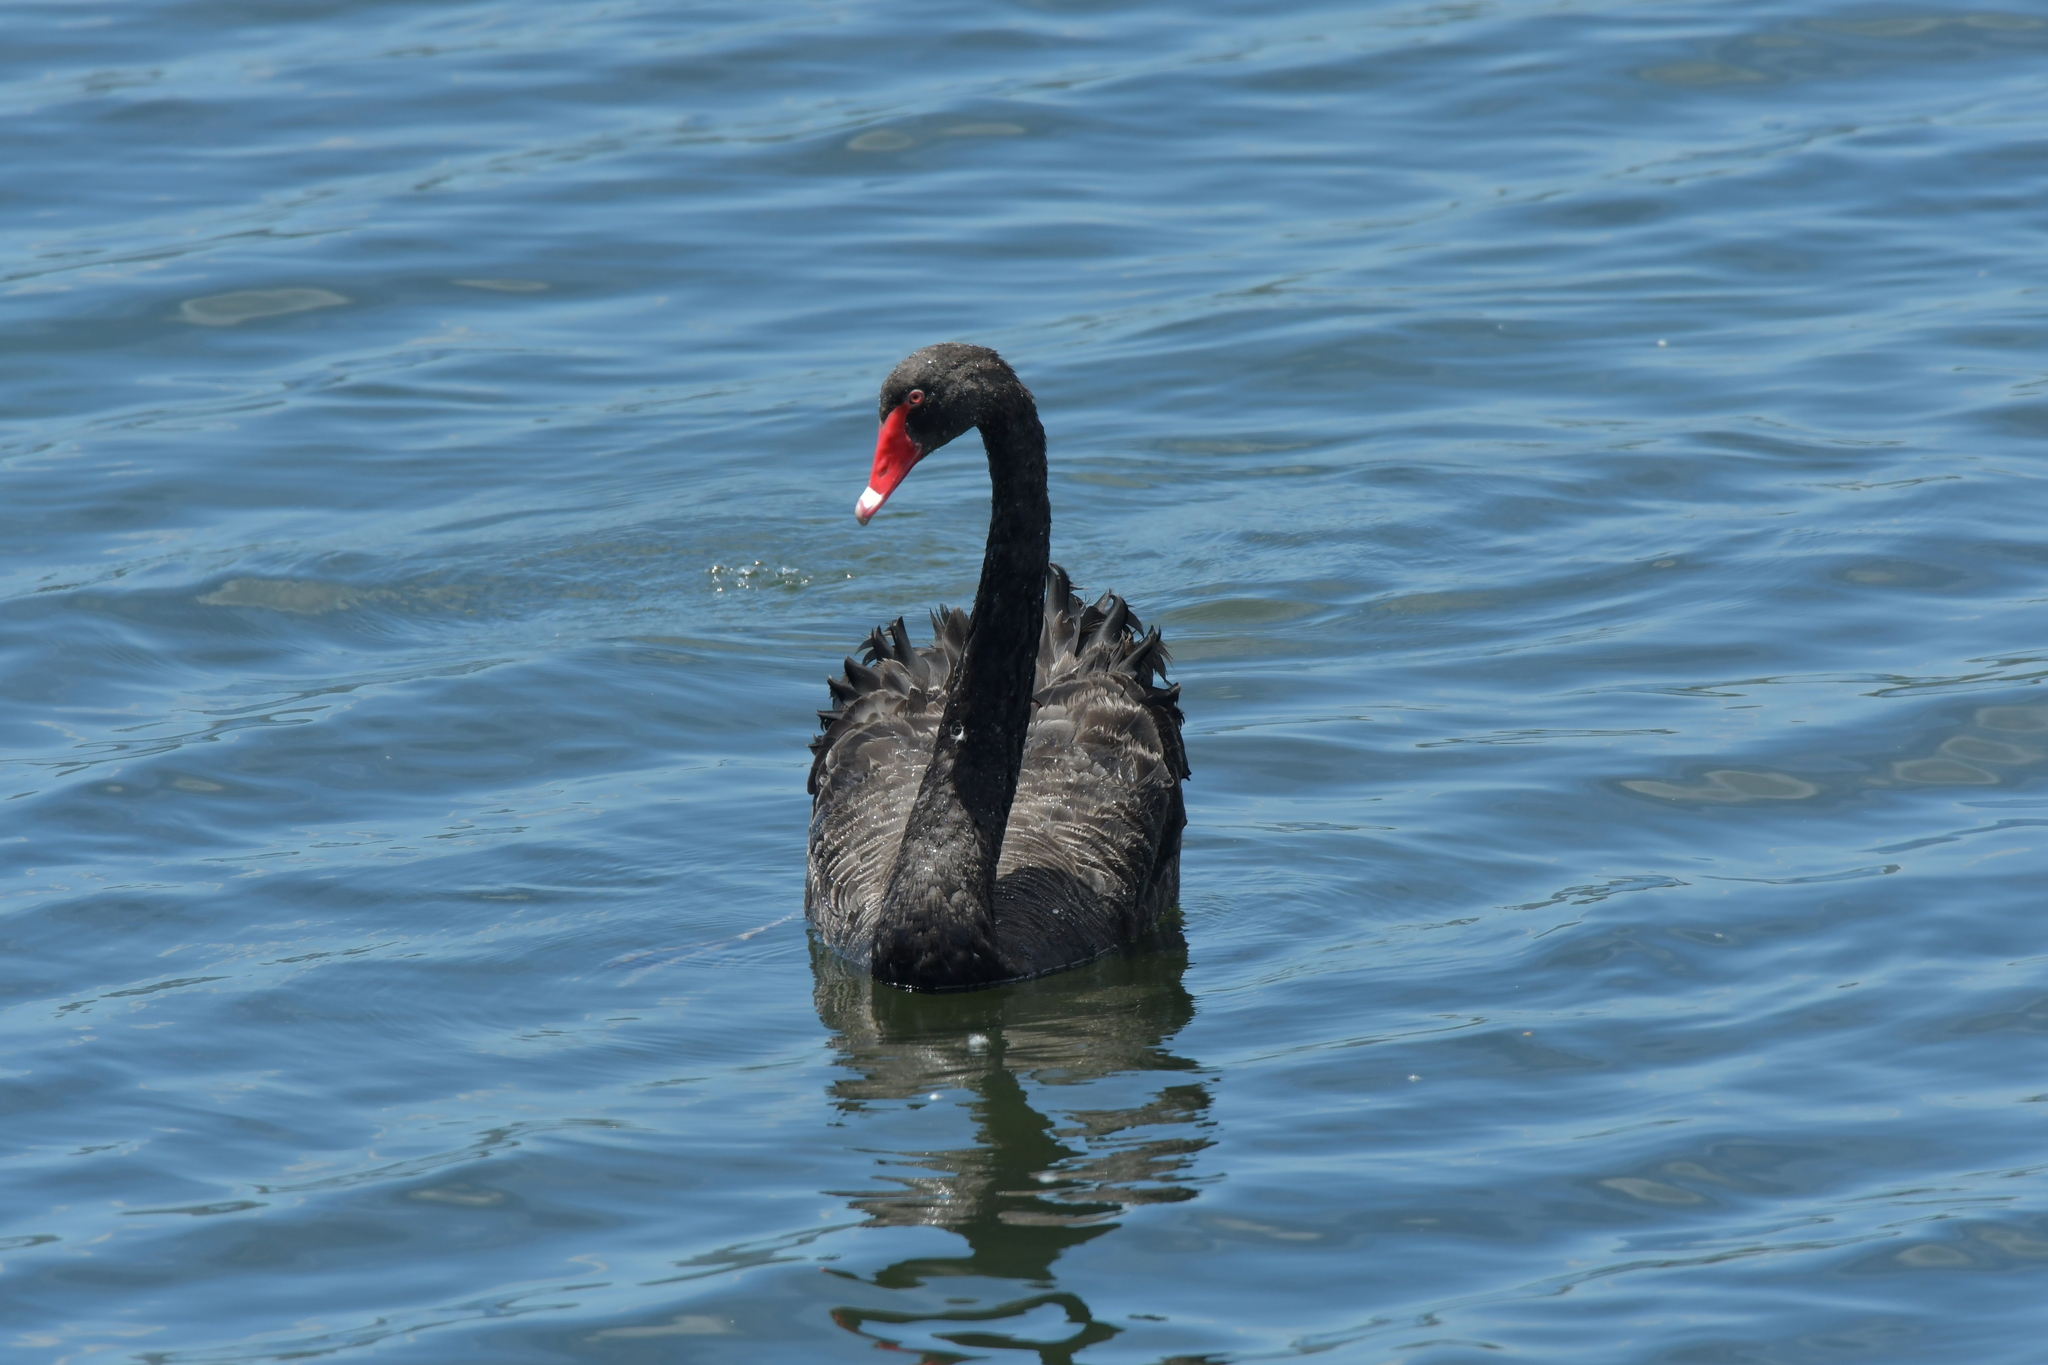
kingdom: Animalia
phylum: Chordata
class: Aves
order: Anseriformes
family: Anatidae
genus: Cygnus
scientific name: Cygnus atratus
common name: Black swan
